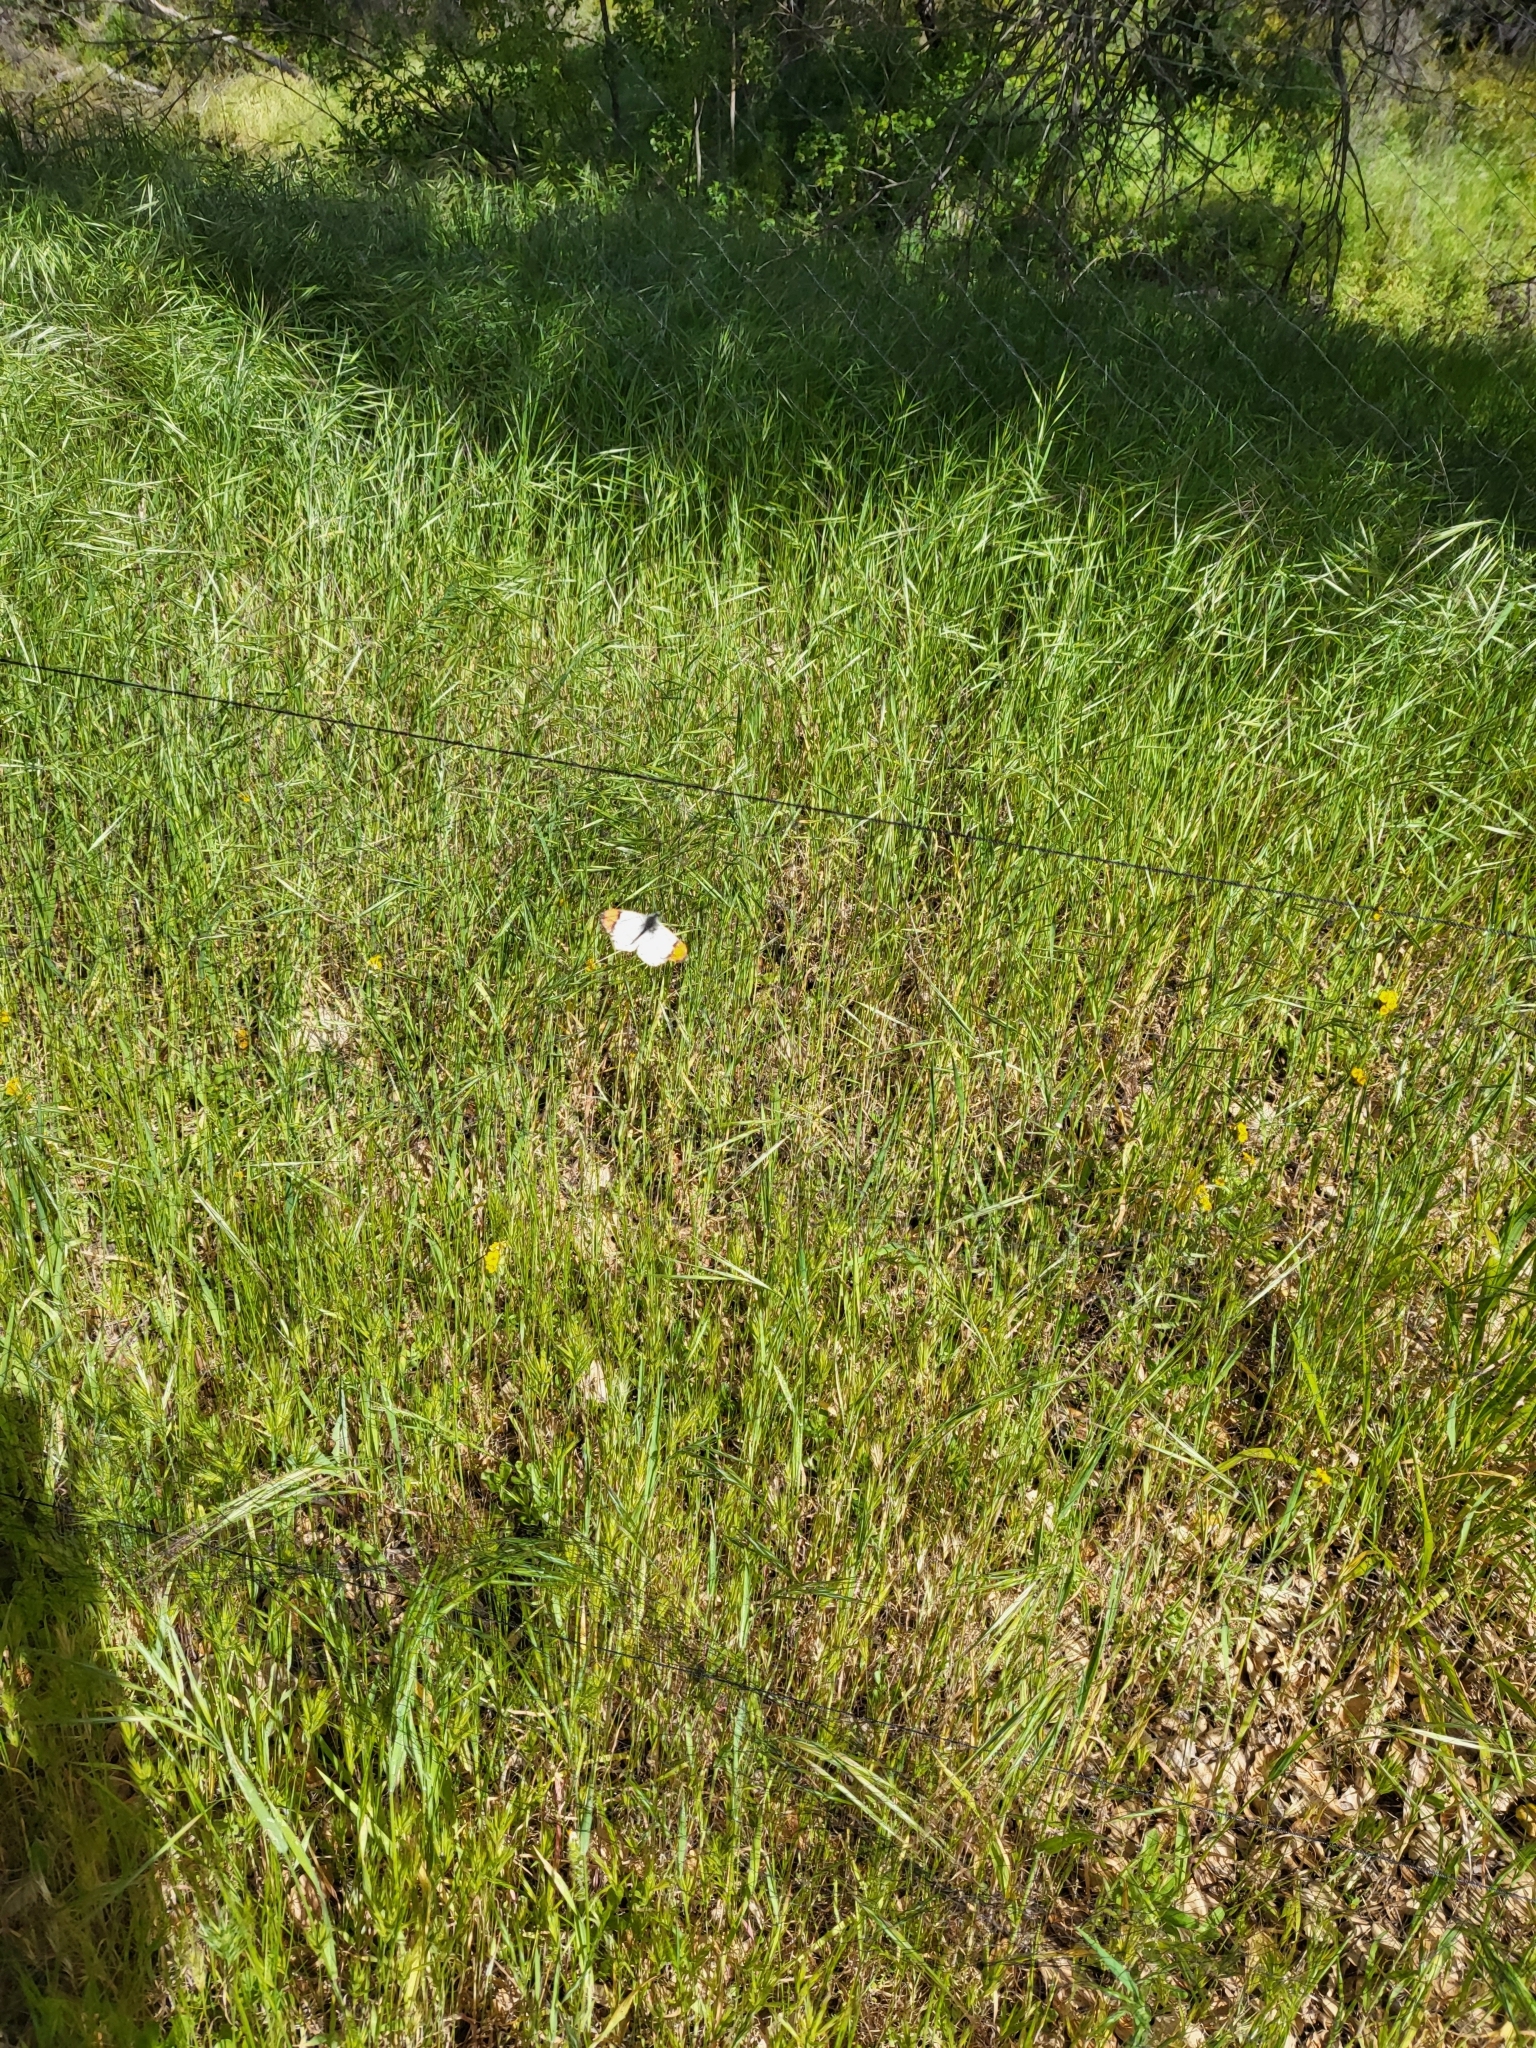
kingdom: Animalia
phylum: Arthropoda
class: Insecta
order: Lepidoptera
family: Pieridae
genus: Anthocharis
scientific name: Anthocharis sara
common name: Sara's orangetip
